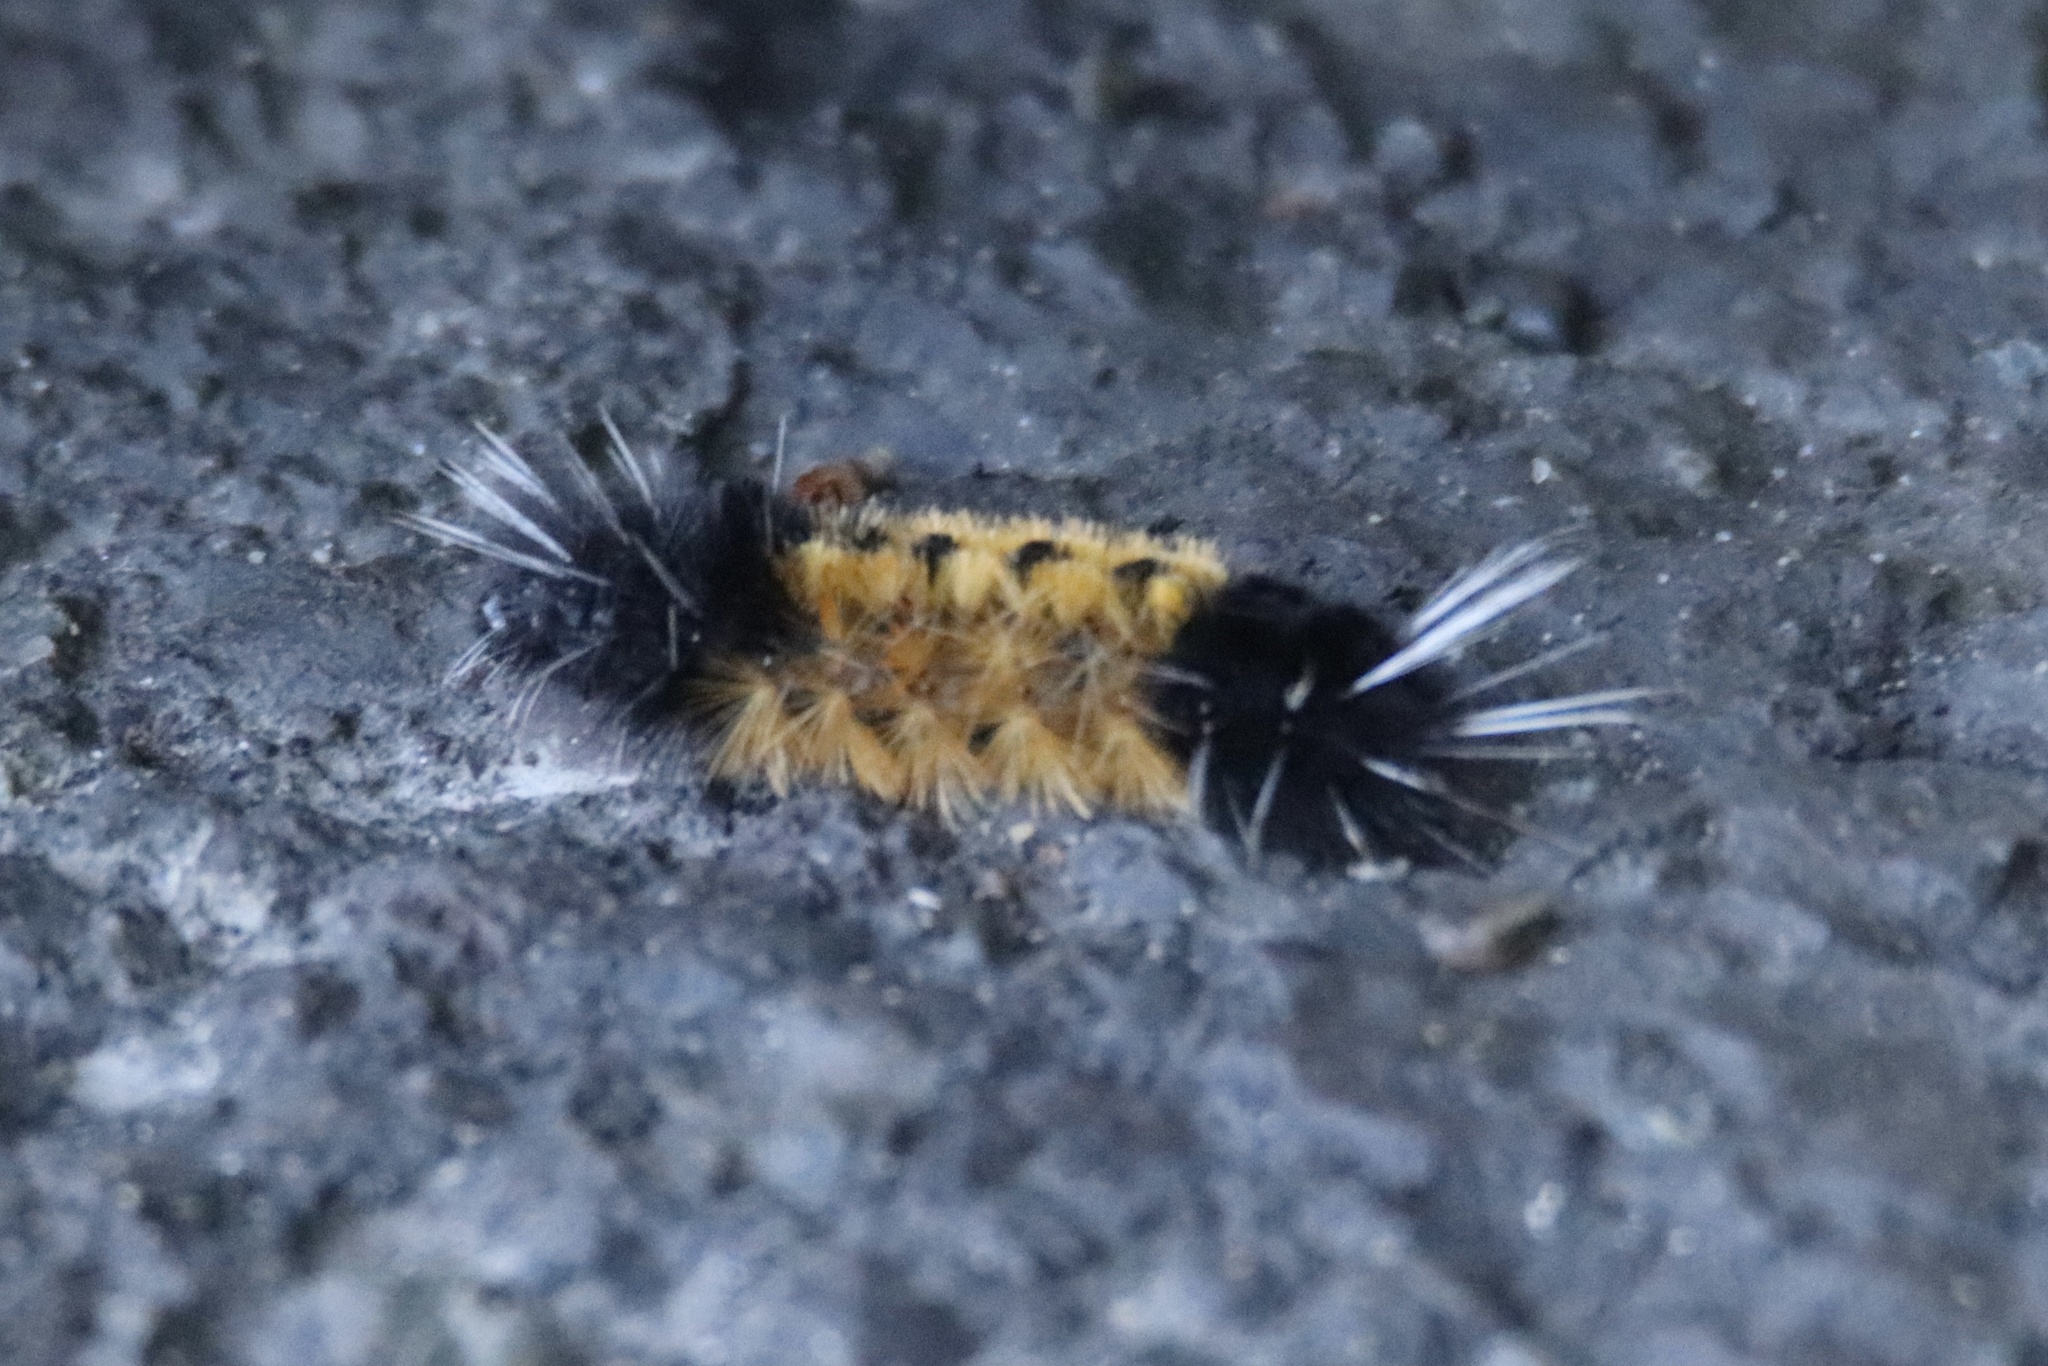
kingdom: Animalia
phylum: Arthropoda
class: Insecta
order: Lepidoptera
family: Erebidae
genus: Lophocampa
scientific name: Lophocampa maculata
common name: Spotted tussock moth
